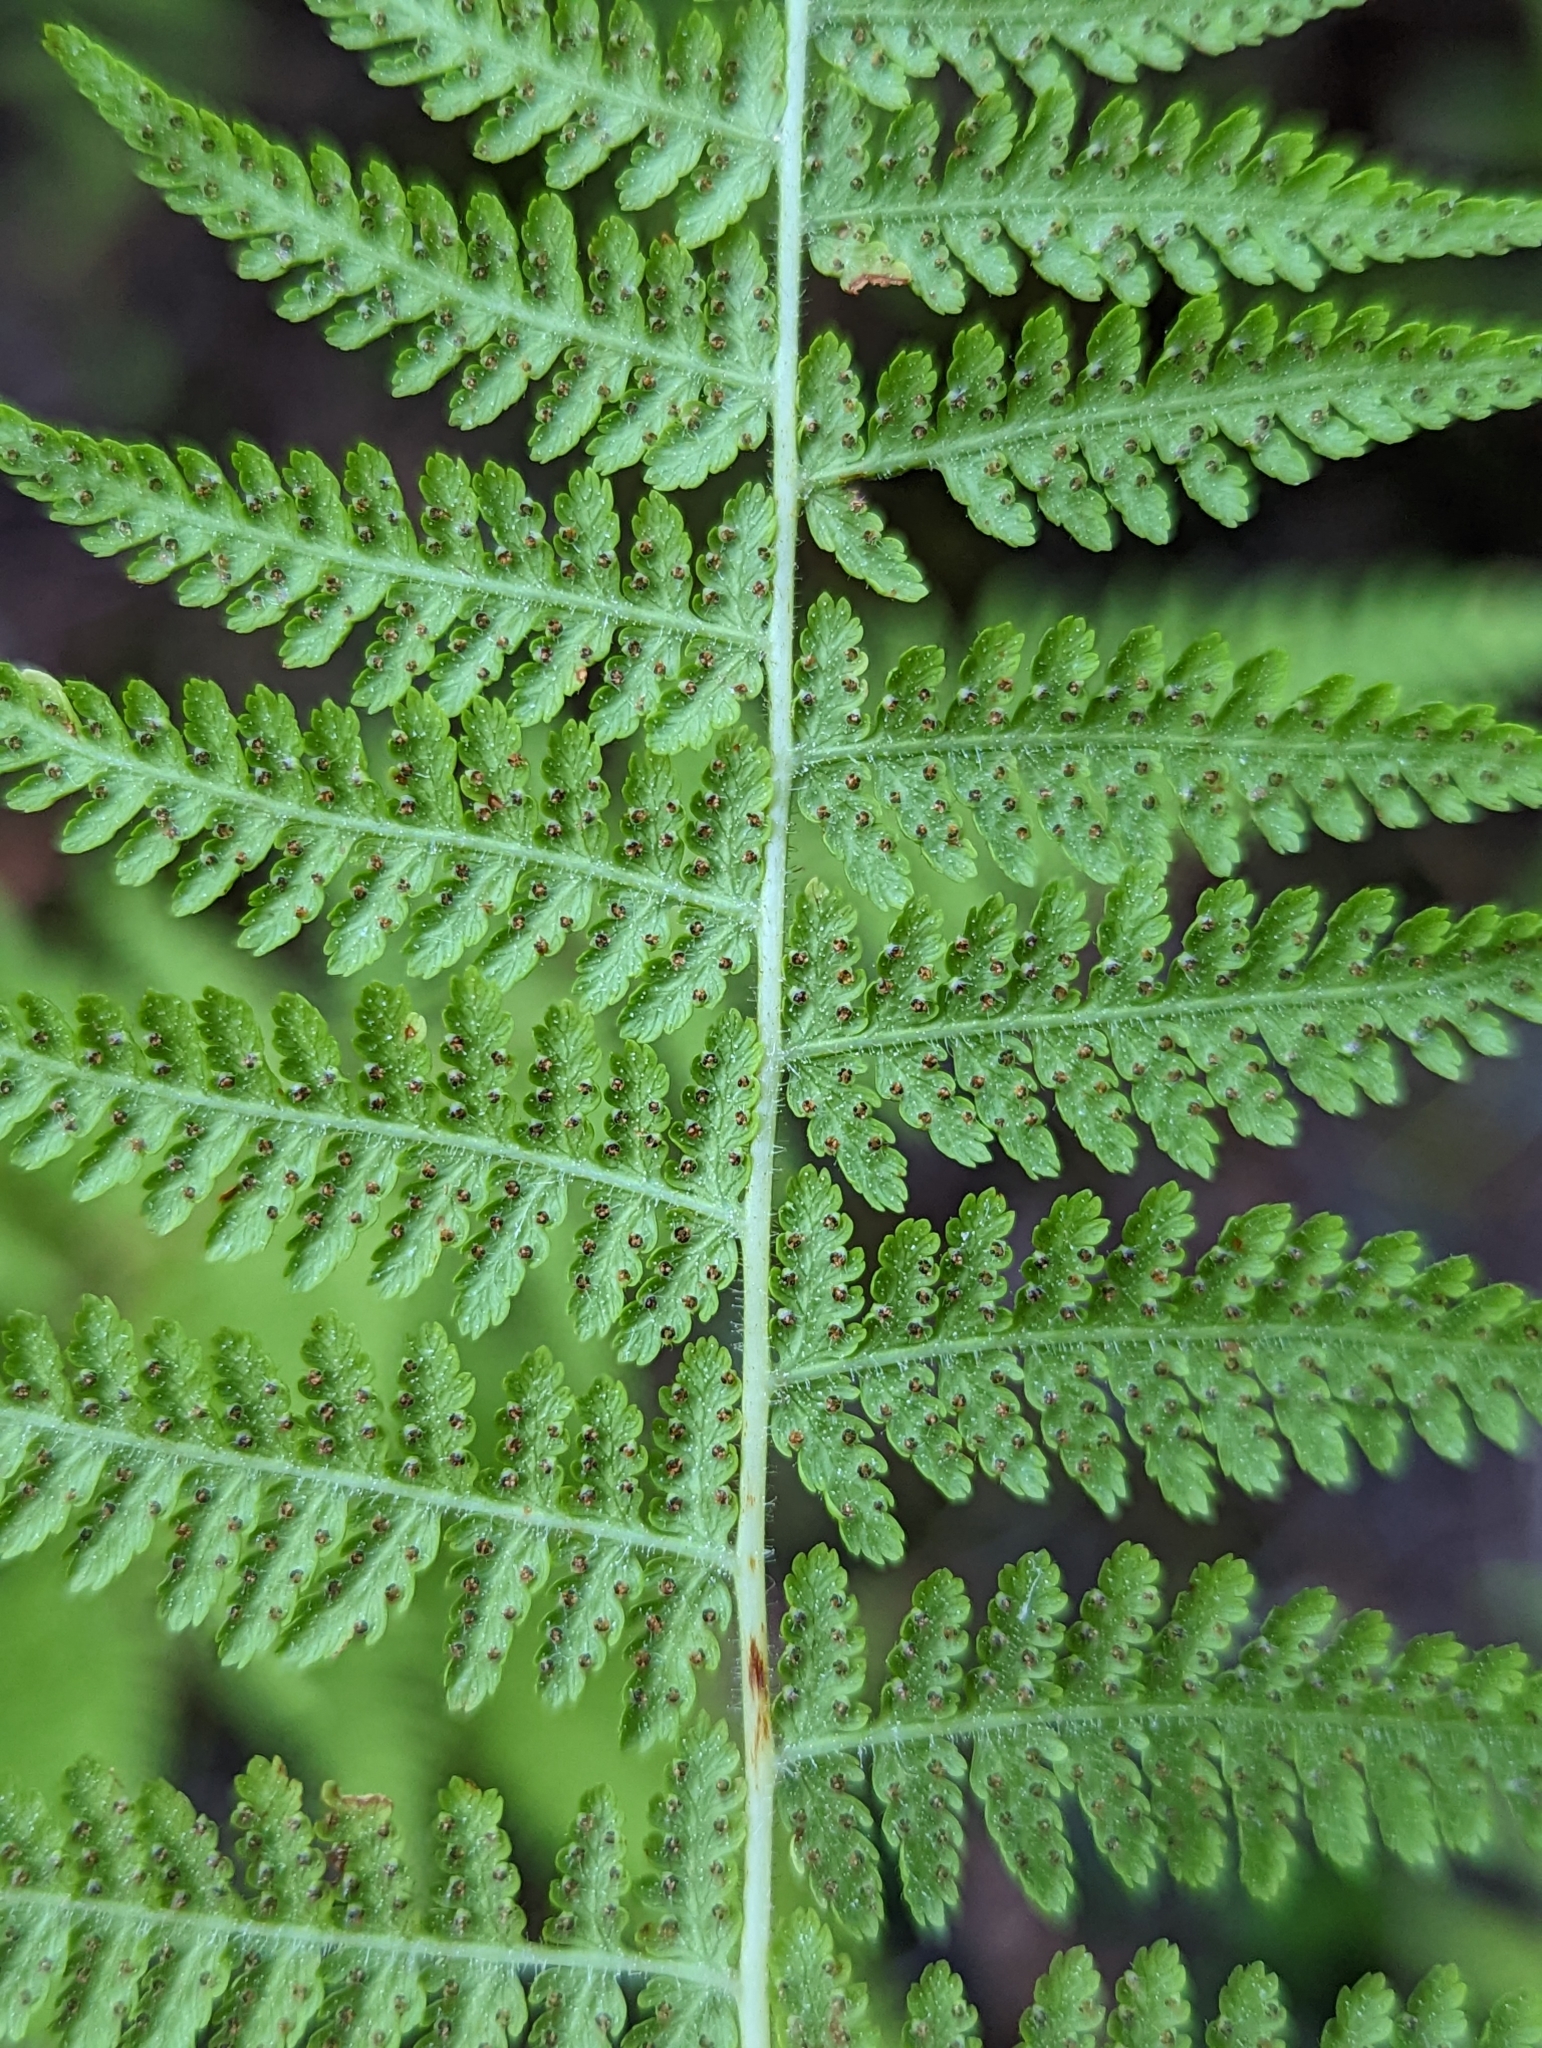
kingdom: Plantae
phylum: Tracheophyta
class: Polypodiopsida
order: Polypodiales
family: Dennstaedtiaceae
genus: Sitobolium
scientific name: Sitobolium punctilobum
